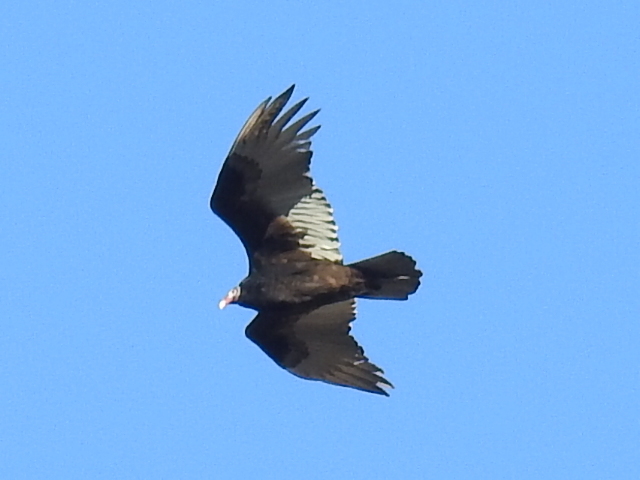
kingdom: Animalia
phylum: Chordata
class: Aves
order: Accipitriformes
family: Cathartidae
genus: Cathartes
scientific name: Cathartes aura
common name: Turkey vulture
